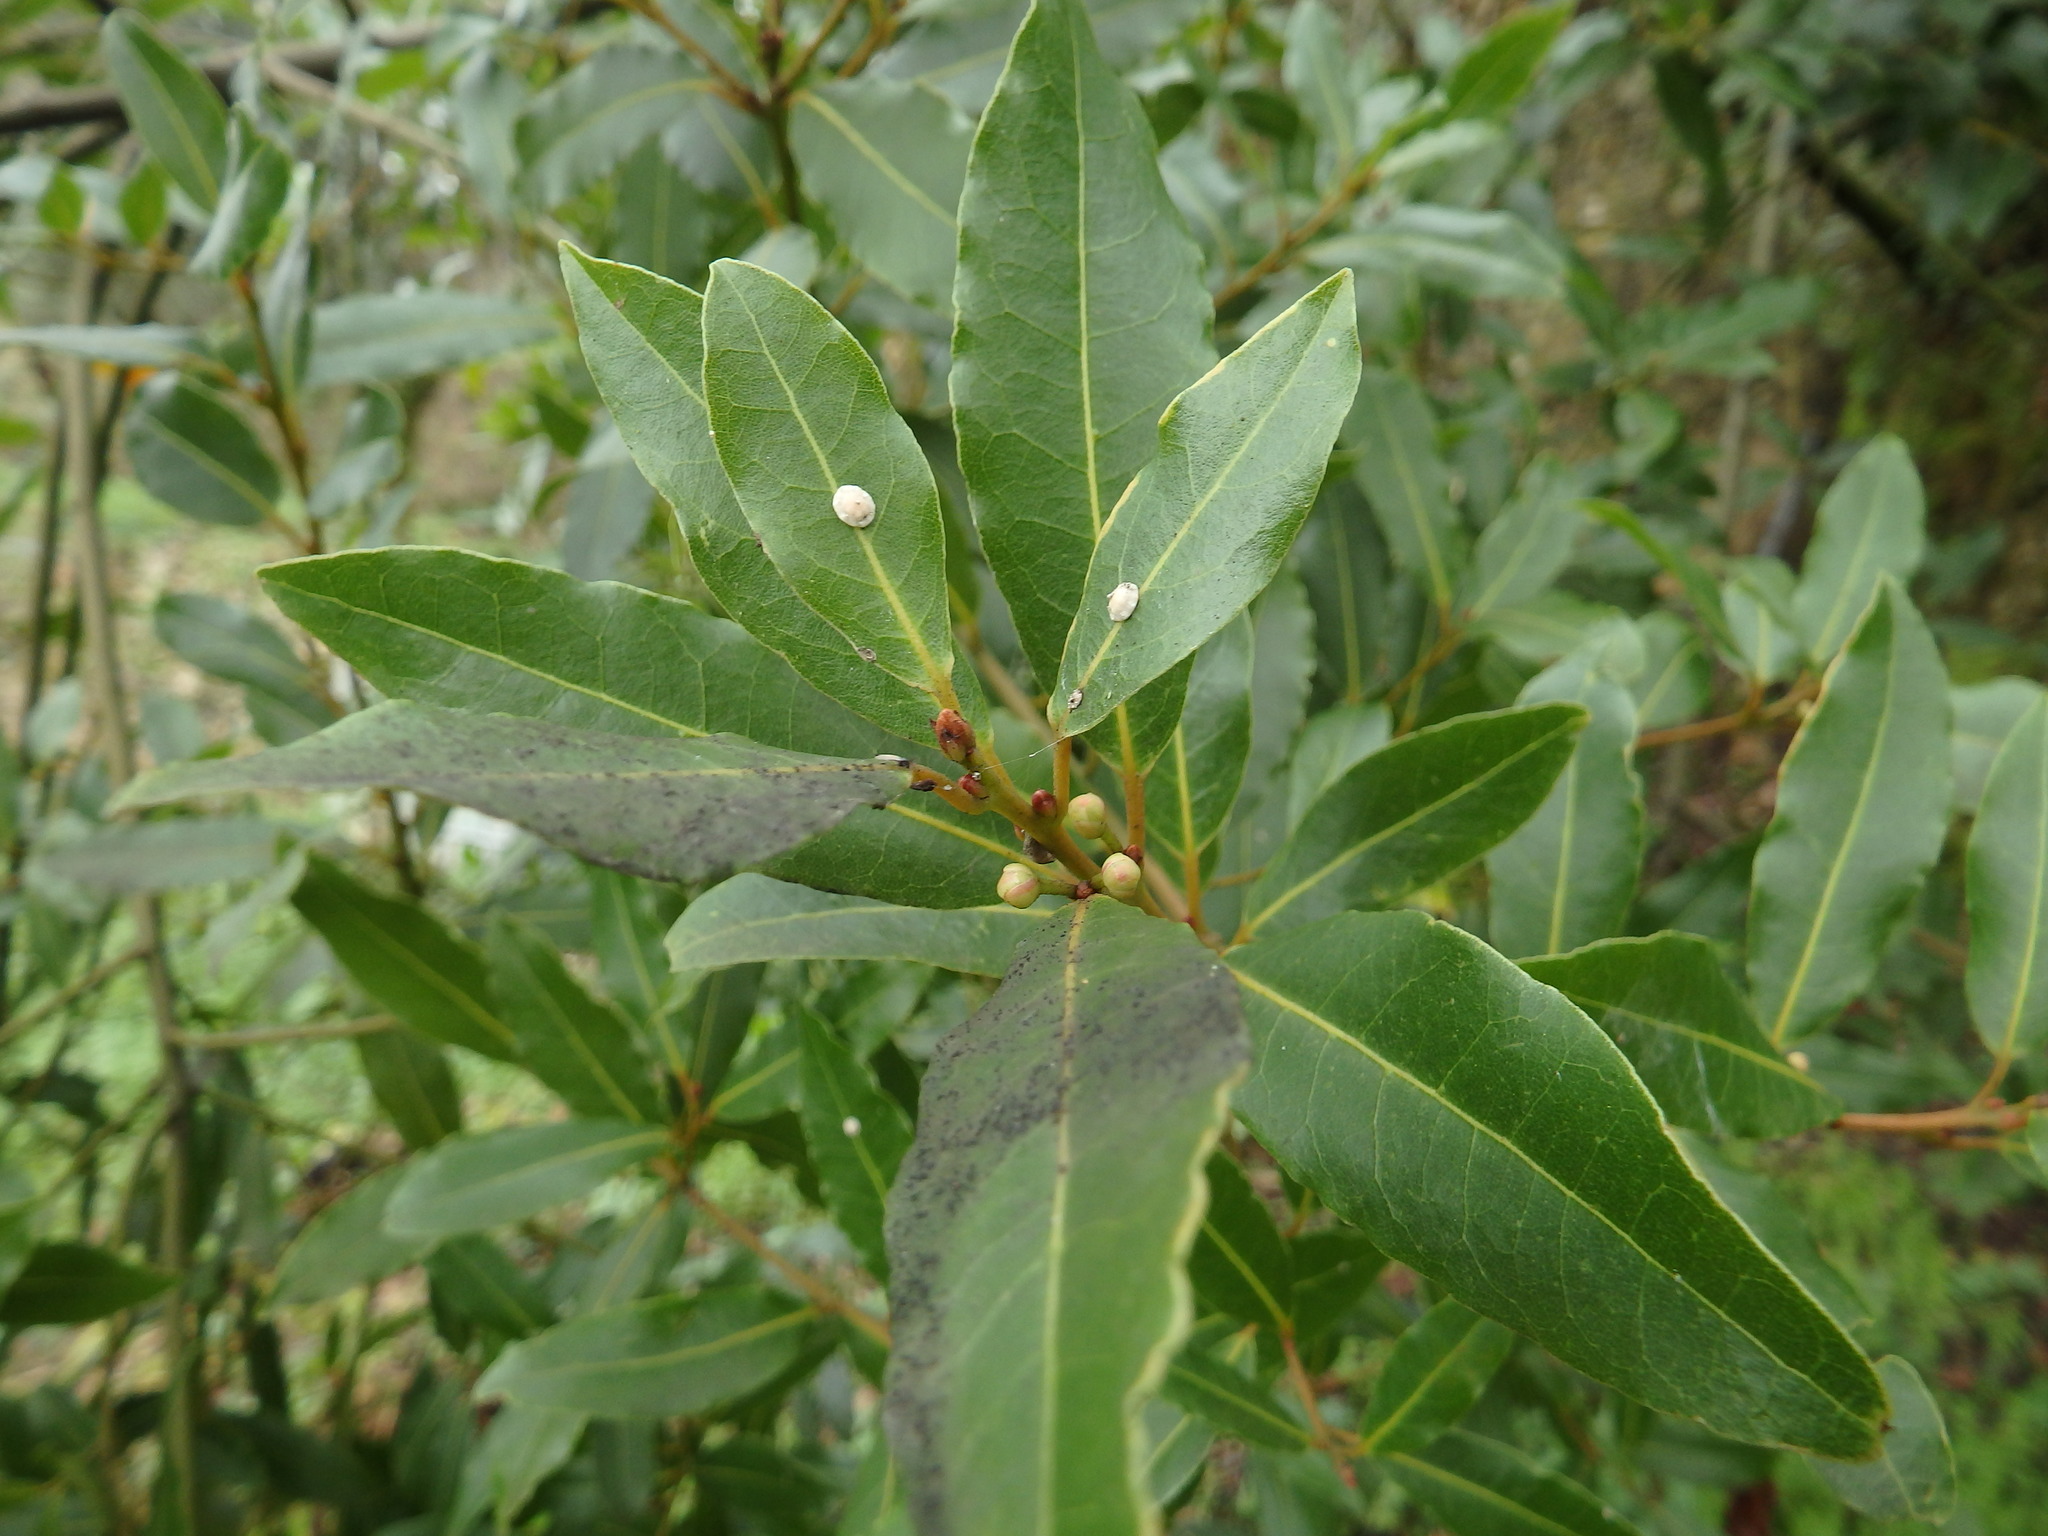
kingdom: Plantae
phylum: Tracheophyta
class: Magnoliopsida
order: Laurales
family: Lauraceae
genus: Laurus
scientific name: Laurus nobilis
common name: Bay
